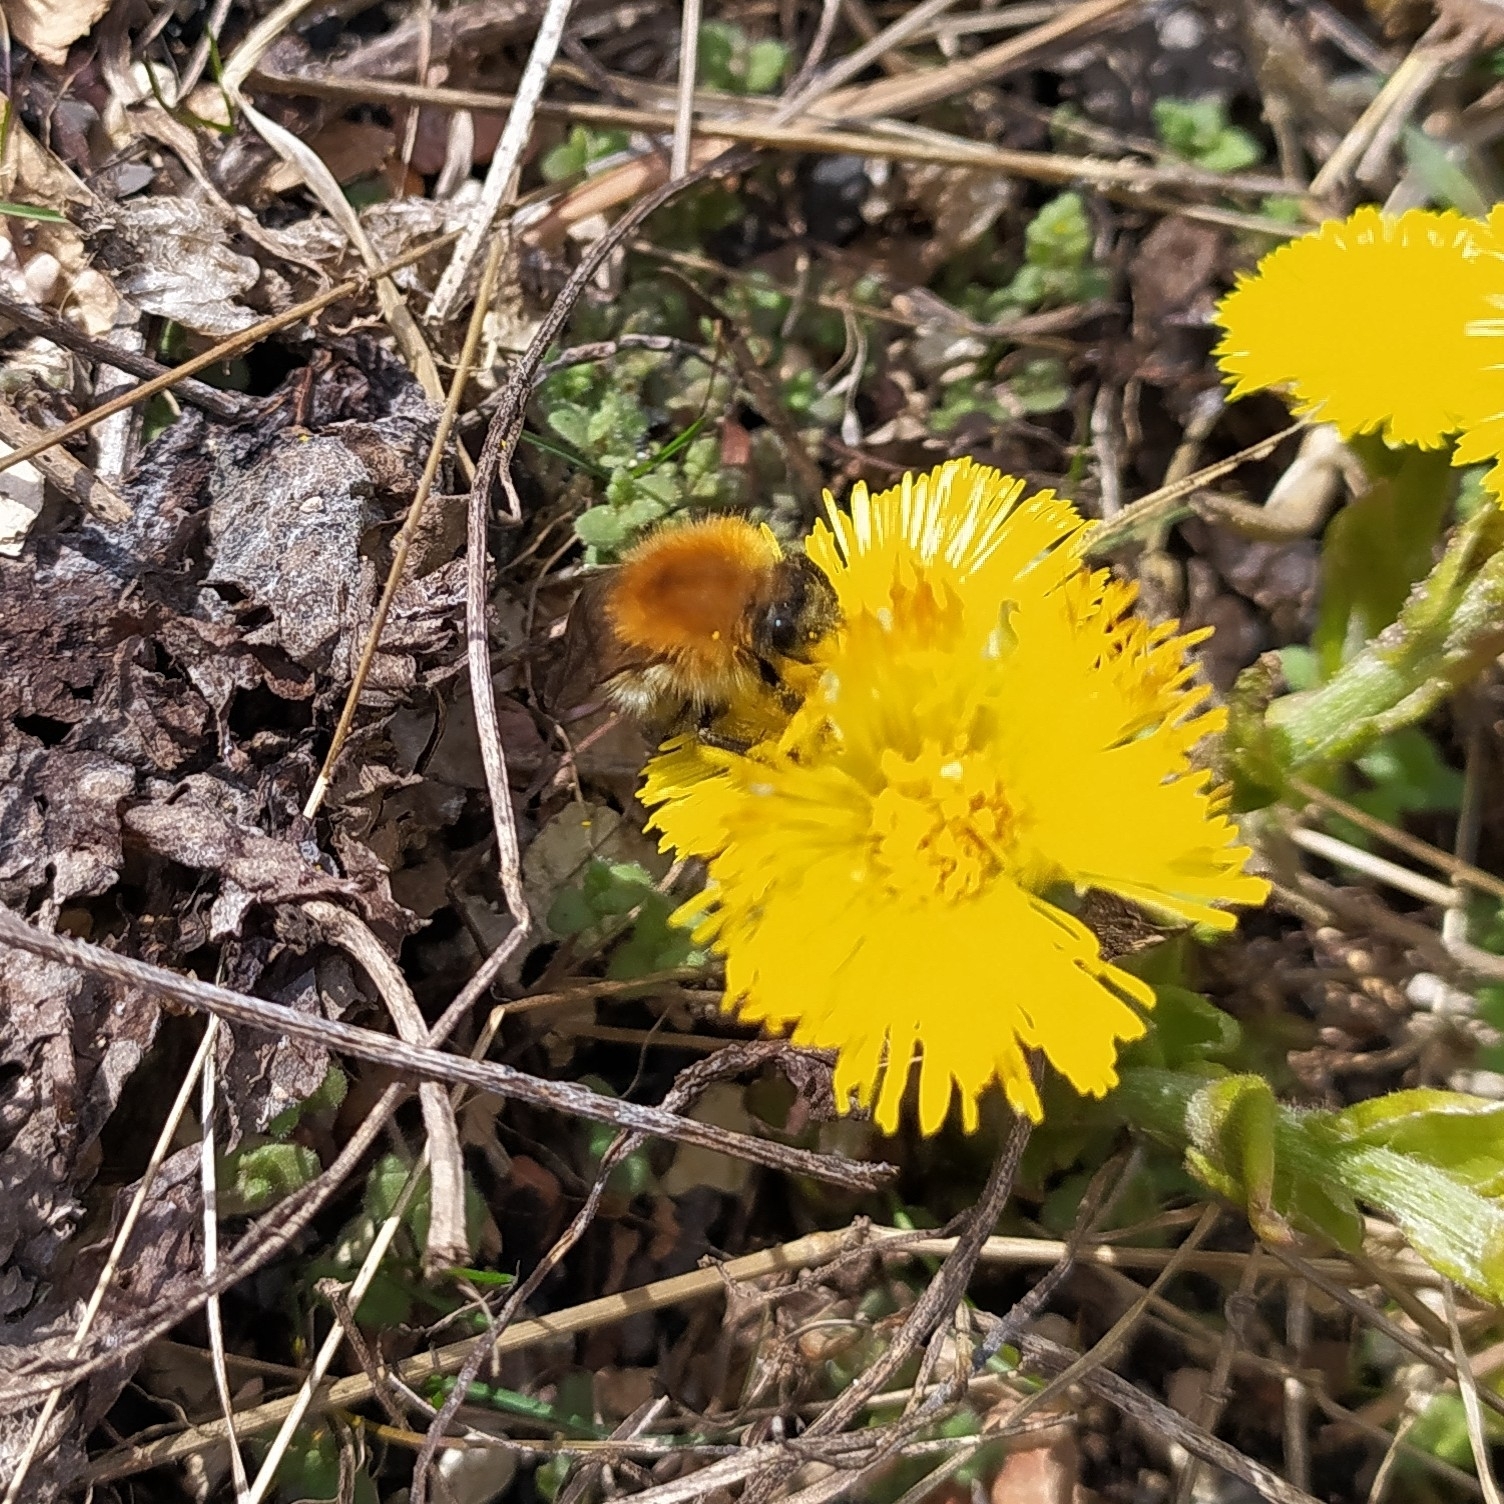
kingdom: Animalia
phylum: Arthropoda
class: Insecta
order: Hymenoptera
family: Apidae
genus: Bombus
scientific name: Bombus pascuorum
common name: Common carder bee
